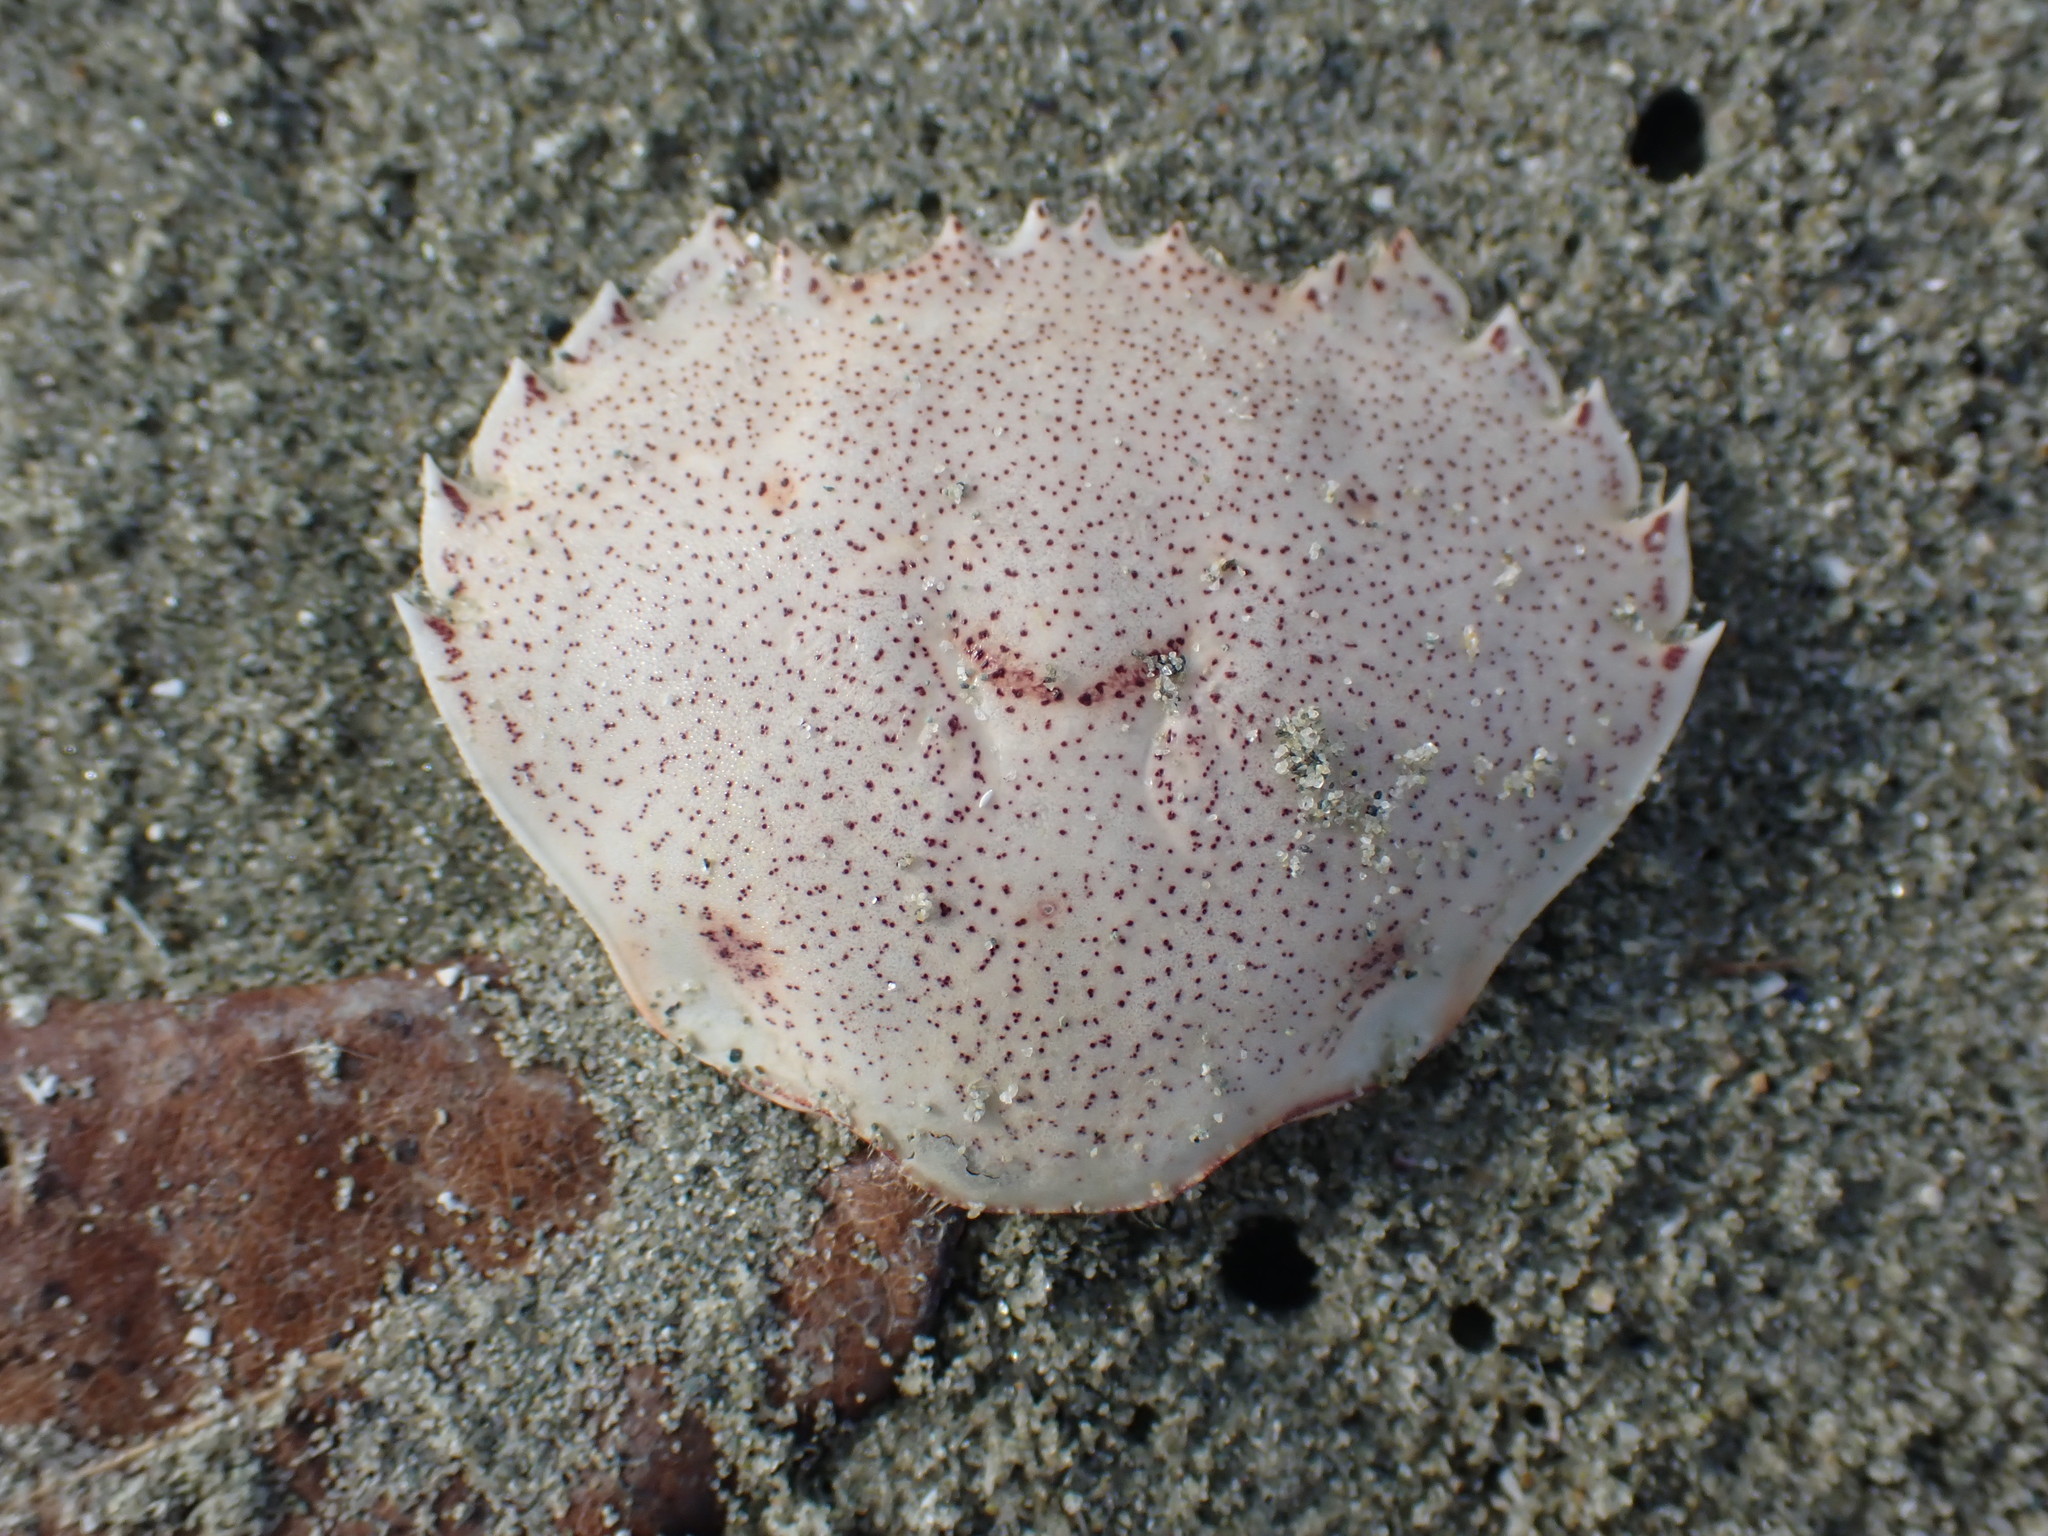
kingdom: Animalia
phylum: Arthropoda
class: Malacostraca
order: Decapoda
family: Ovalipidae
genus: Ovalipes
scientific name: Ovalipes catharus
